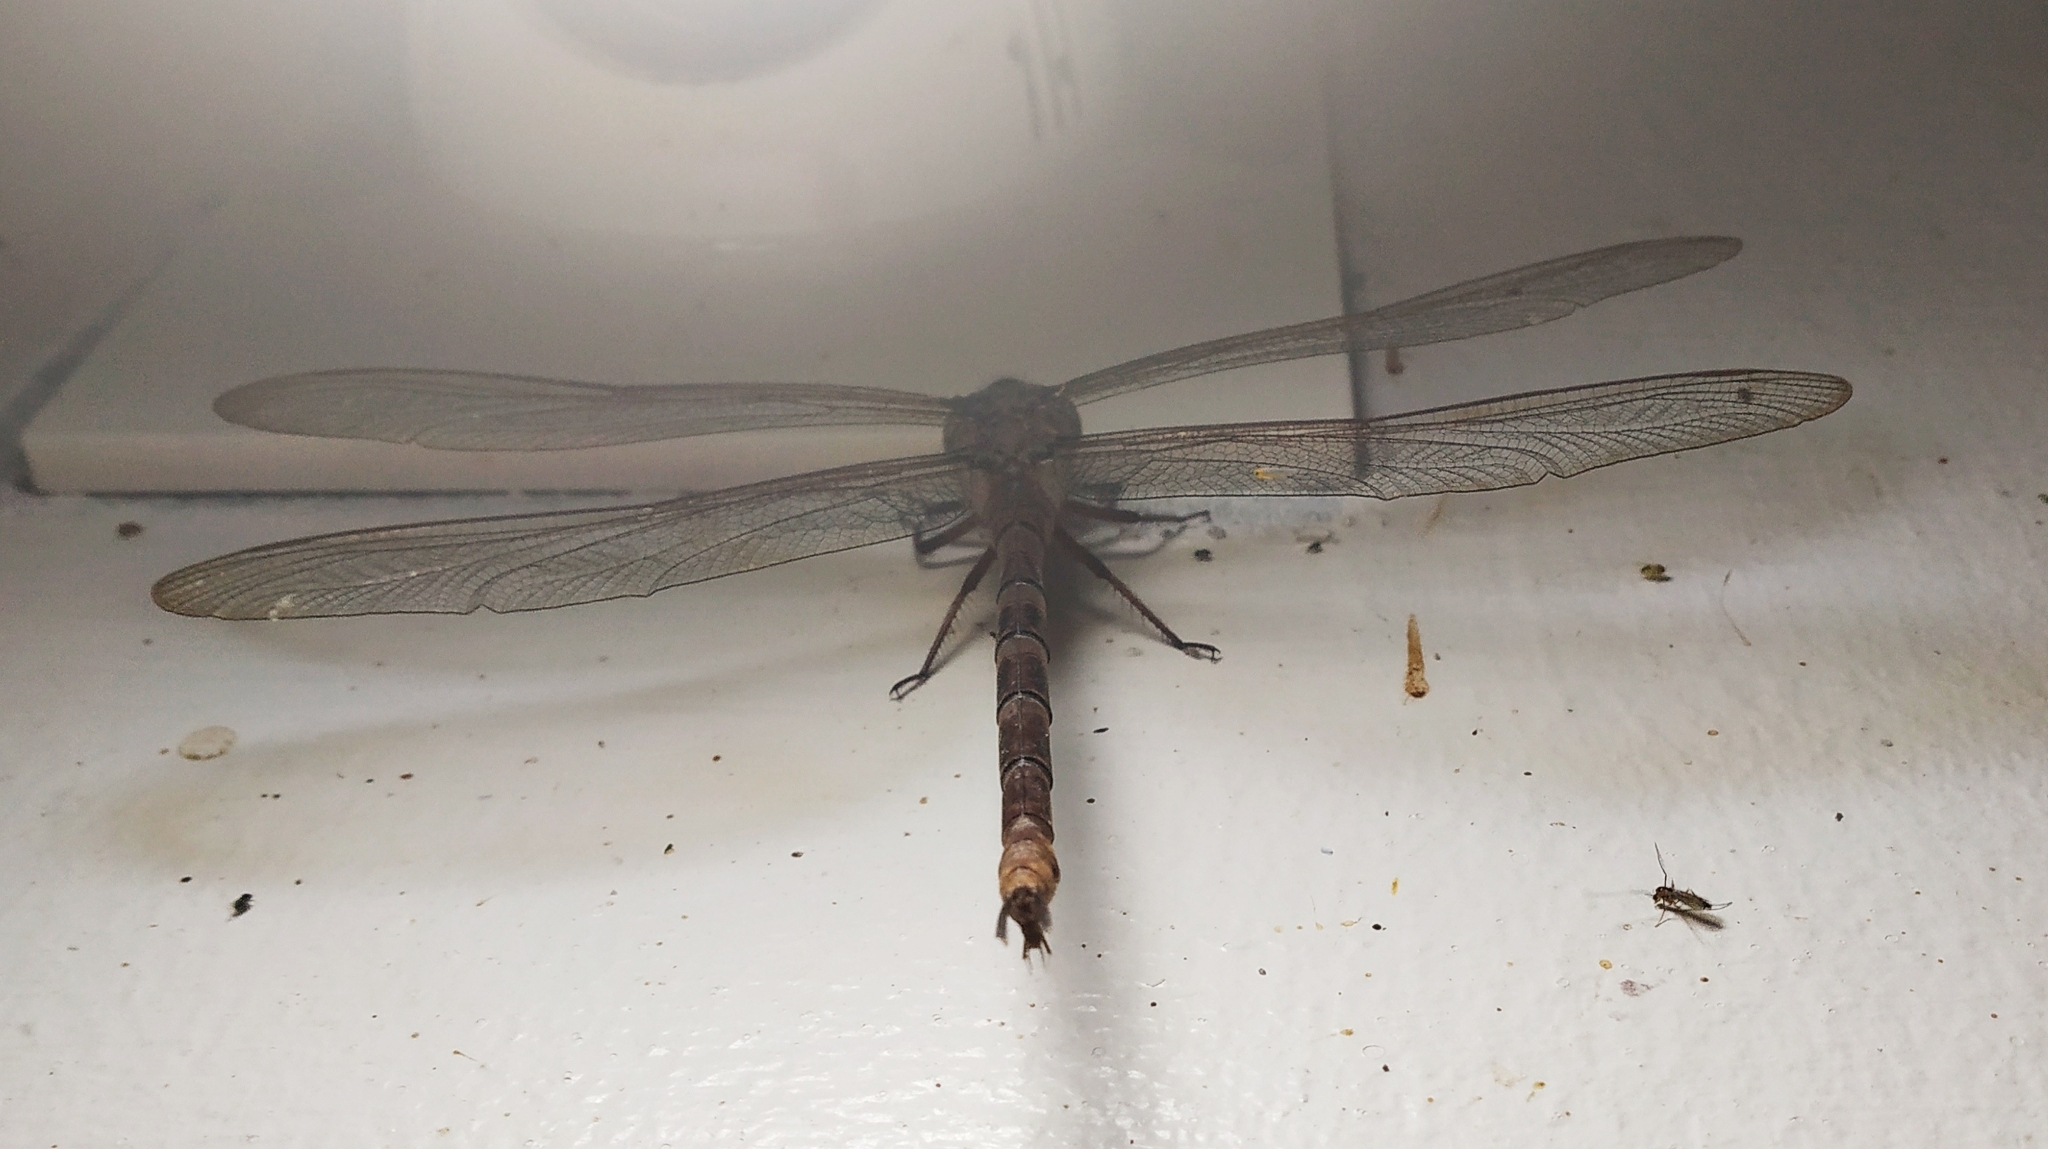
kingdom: Animalia
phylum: Arthropoda
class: Insecta
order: Odonata
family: Aeshnidae
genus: Gynacantha
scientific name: Gynacantha dravida
